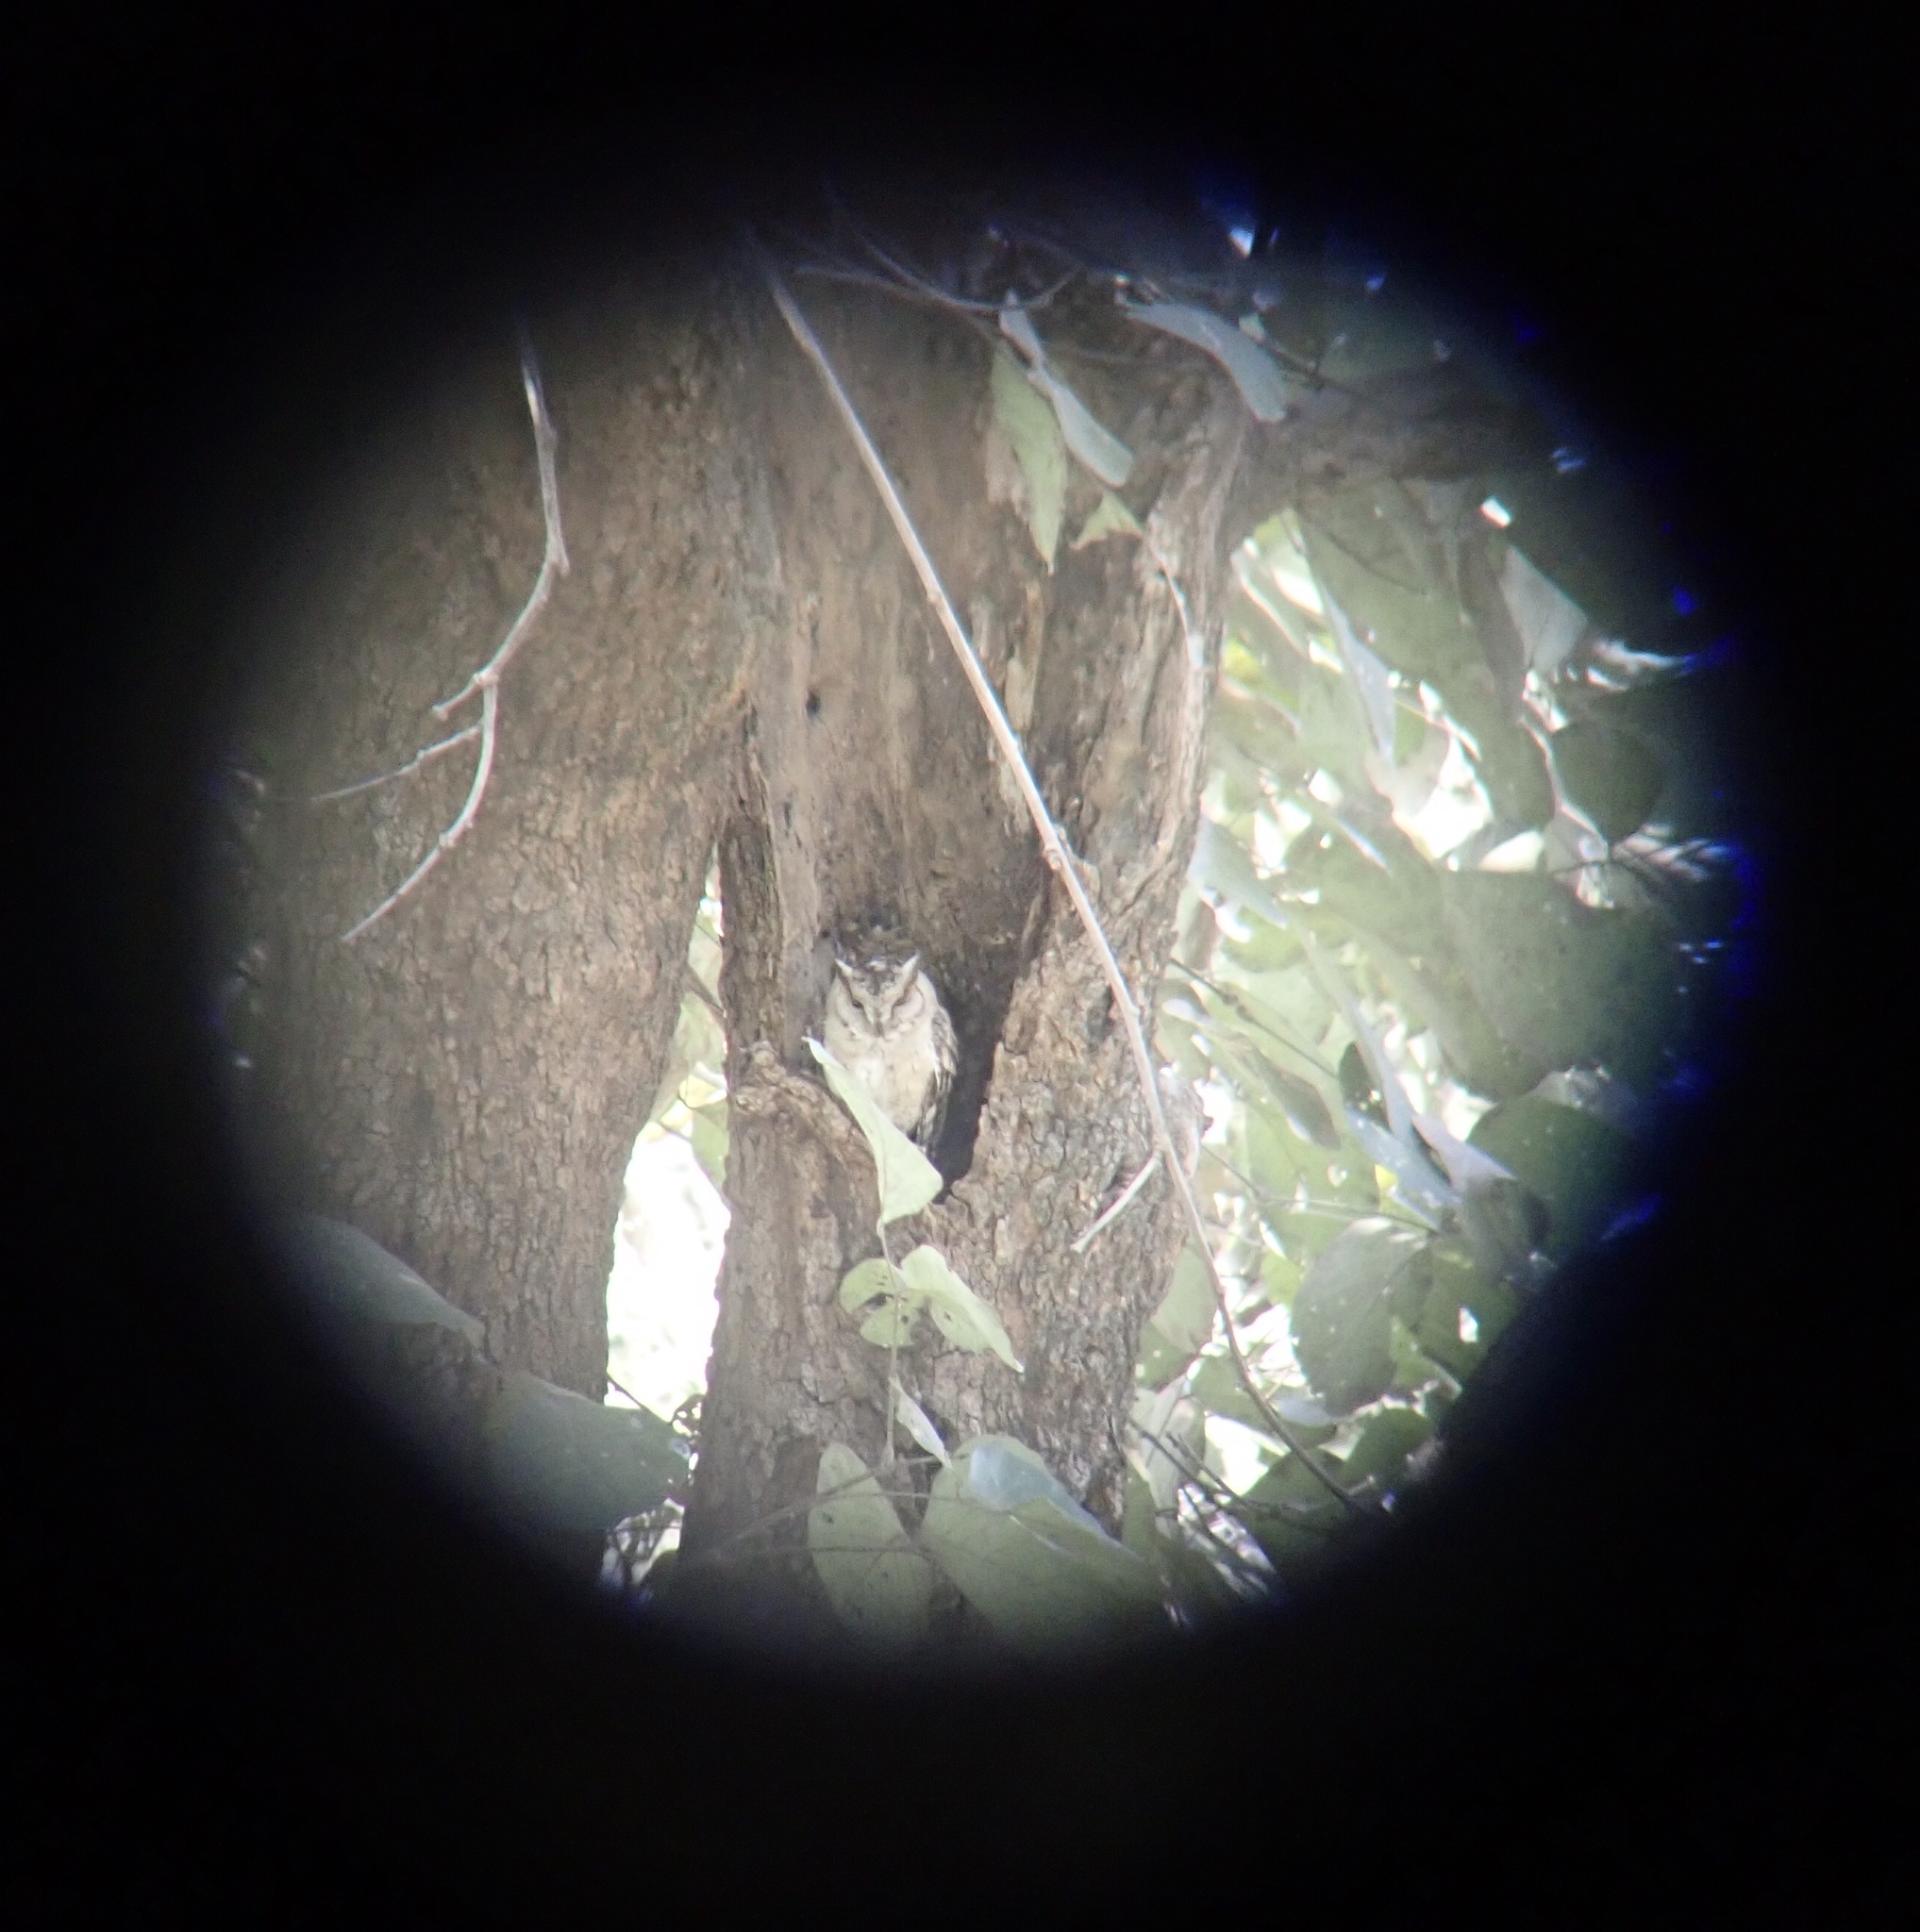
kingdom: Animalia
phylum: Chordata
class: Aves
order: Strigiformes
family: Strigidae
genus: Otus
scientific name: Otus bakkamoena
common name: Indian scops owl
